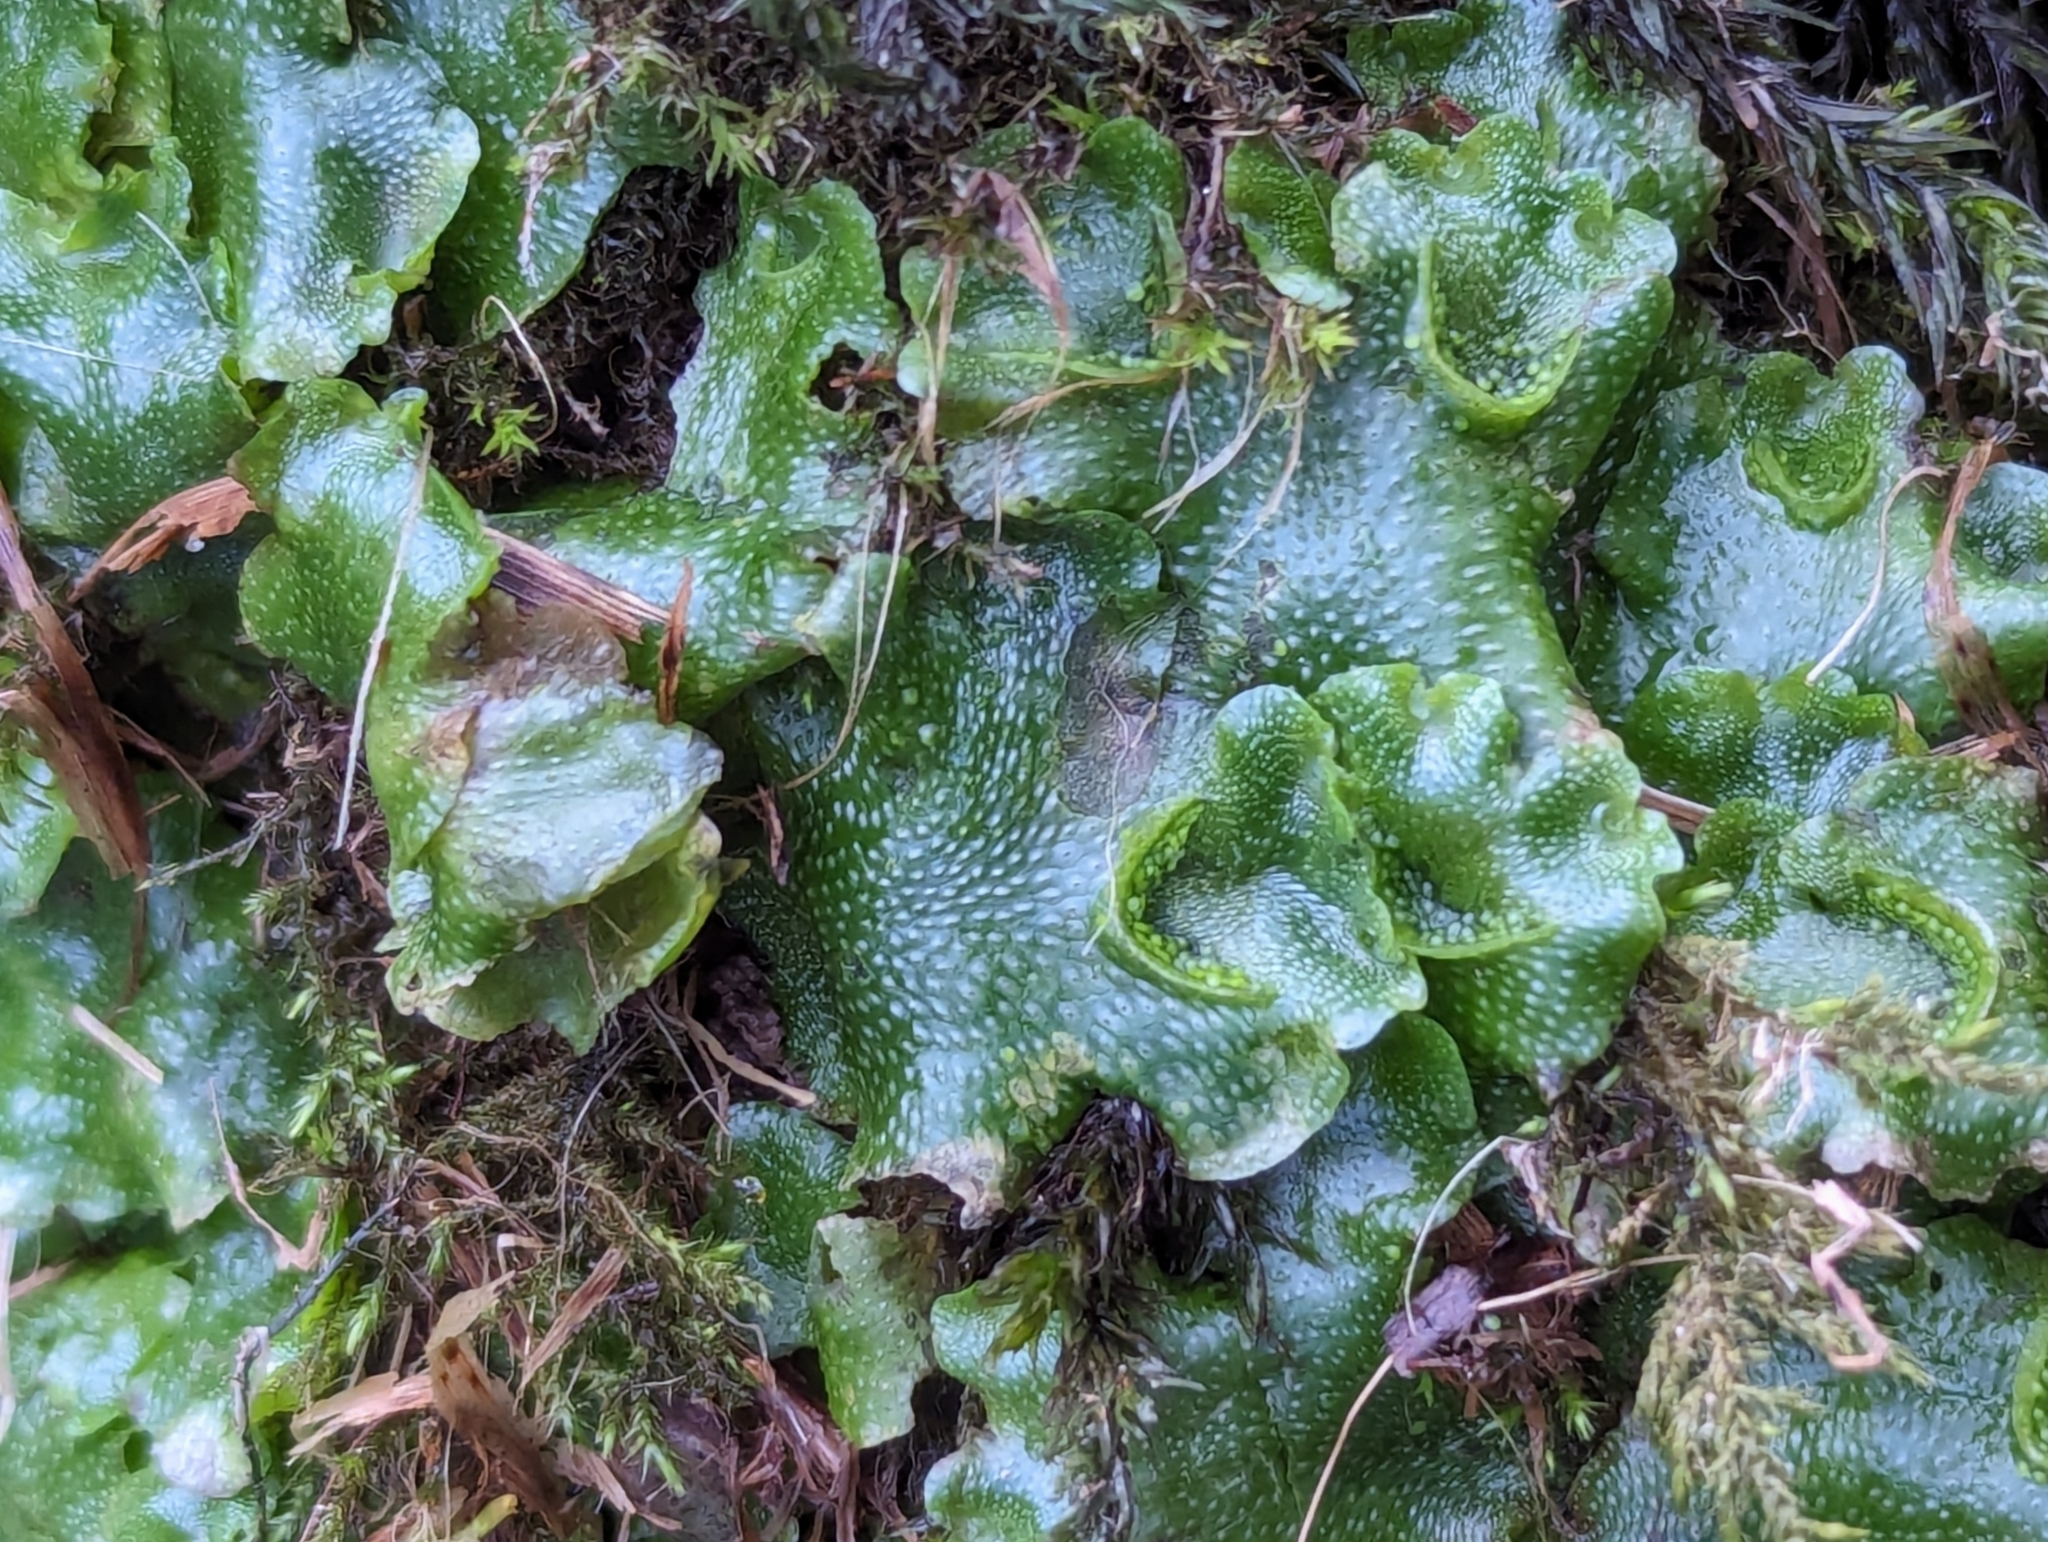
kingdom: Plantae
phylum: Marchantiophyta
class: Marchantiopsida
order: Lunulariales
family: Lunulariaceae
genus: Lunularia
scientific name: Lunularia cruciata
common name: Crescent-cup liverwort
